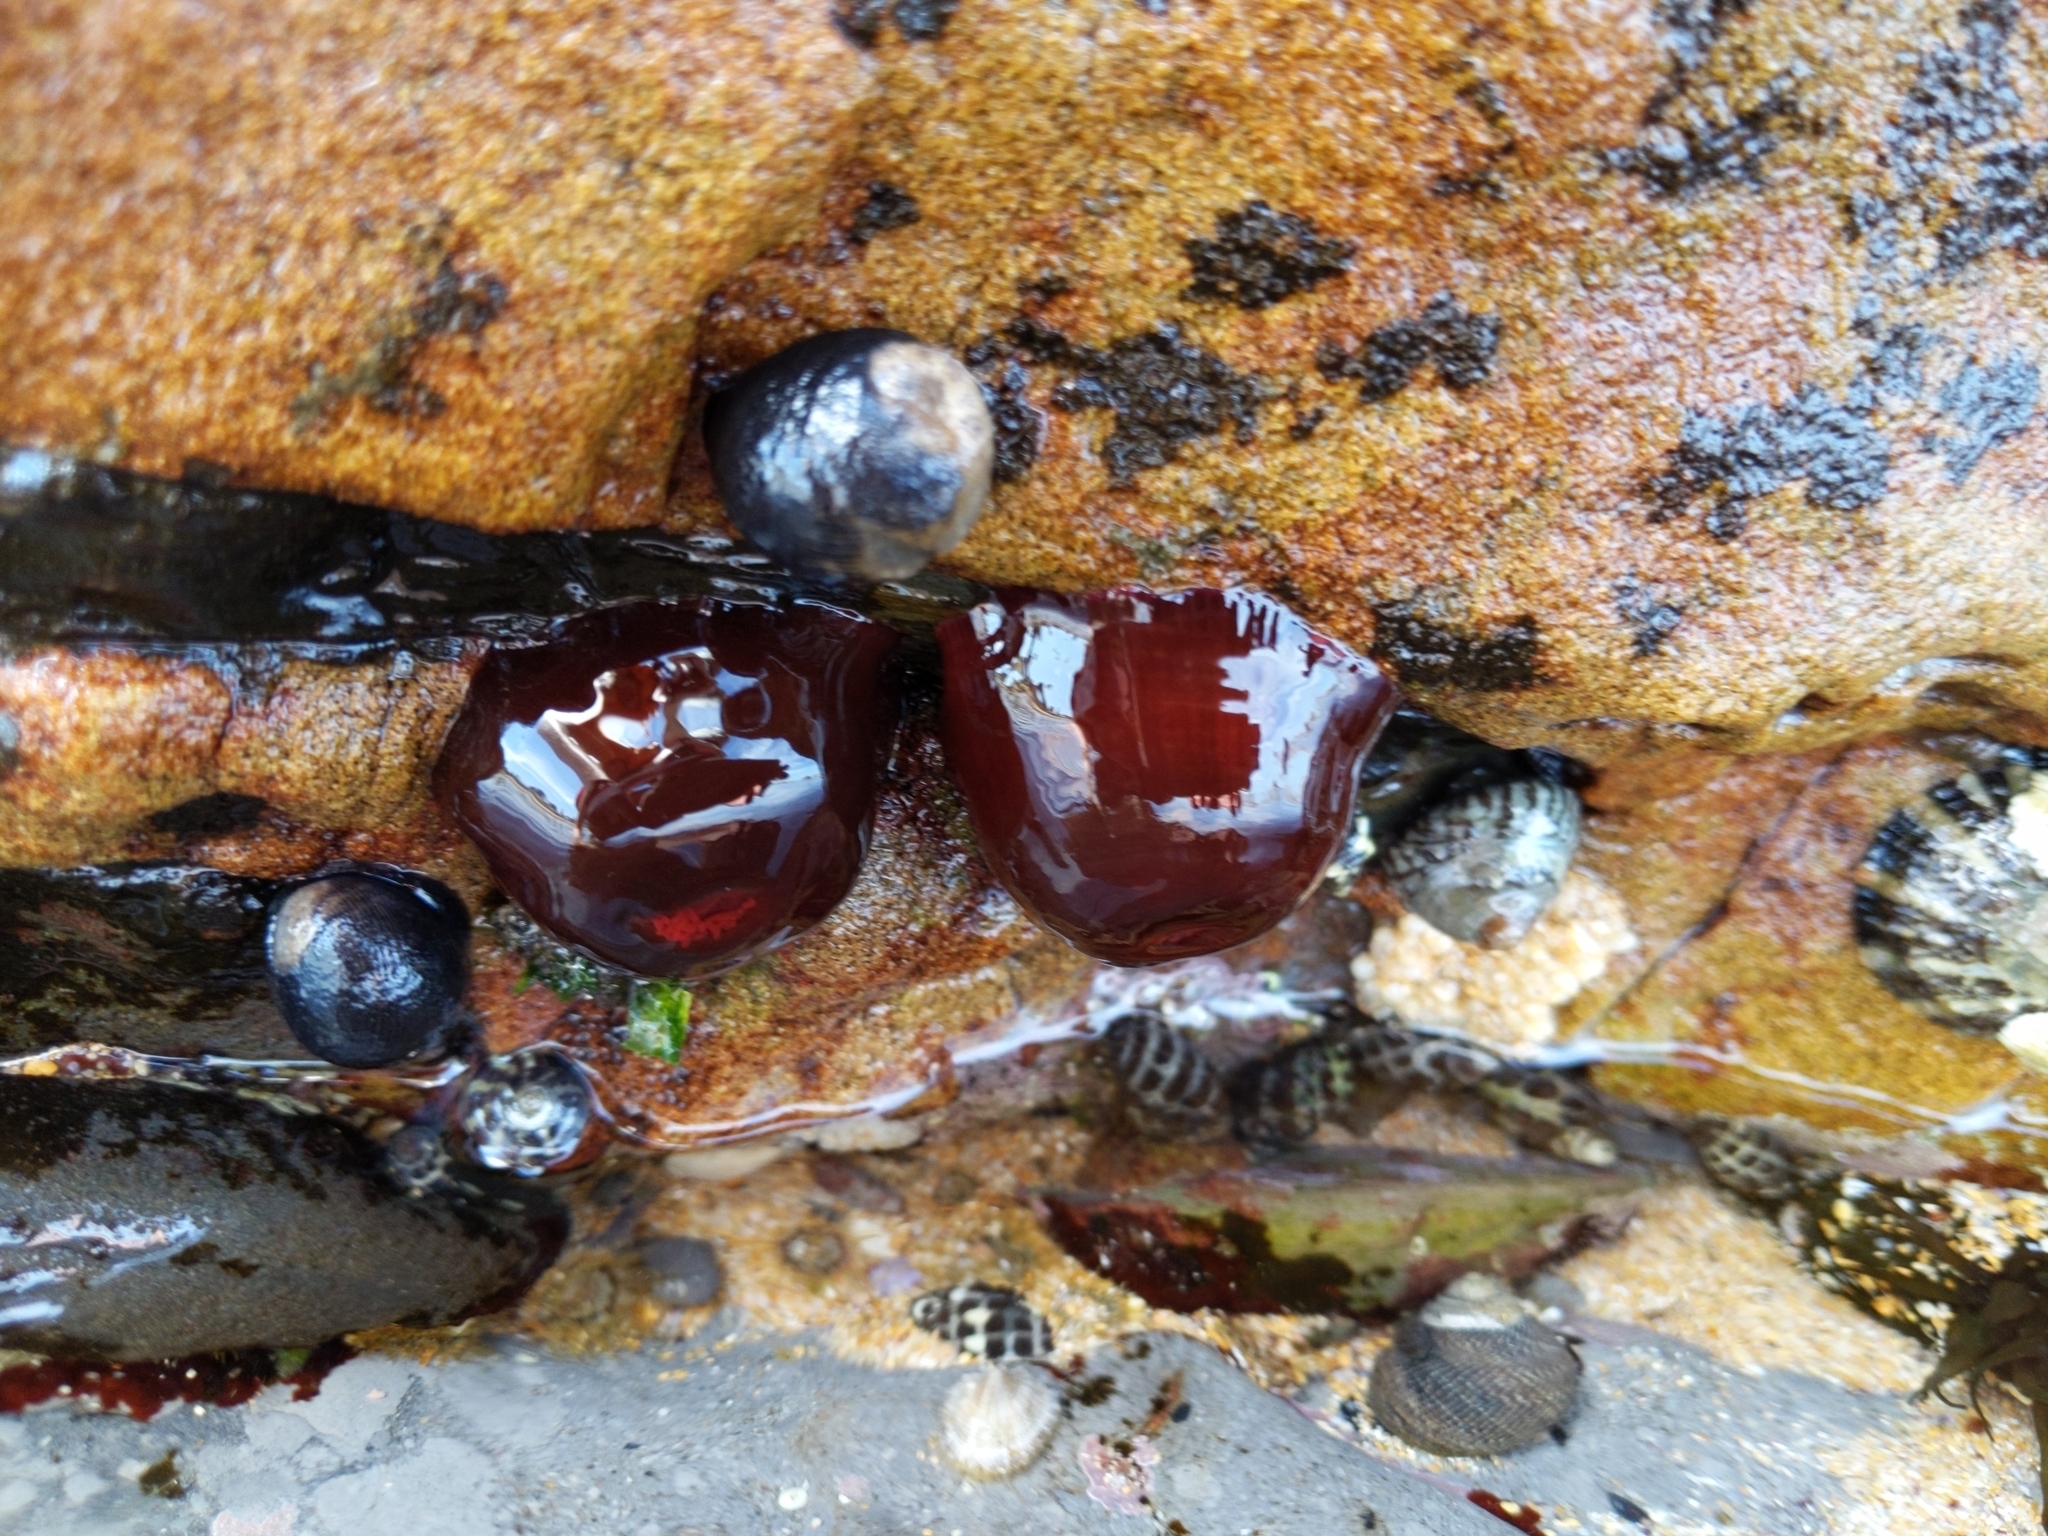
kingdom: Animalia
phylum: Cnidaria
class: Anthozoa
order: Actiniaria
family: Actiniidae
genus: Actinia
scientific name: Actinia tenebrosa
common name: Waratah anemone
